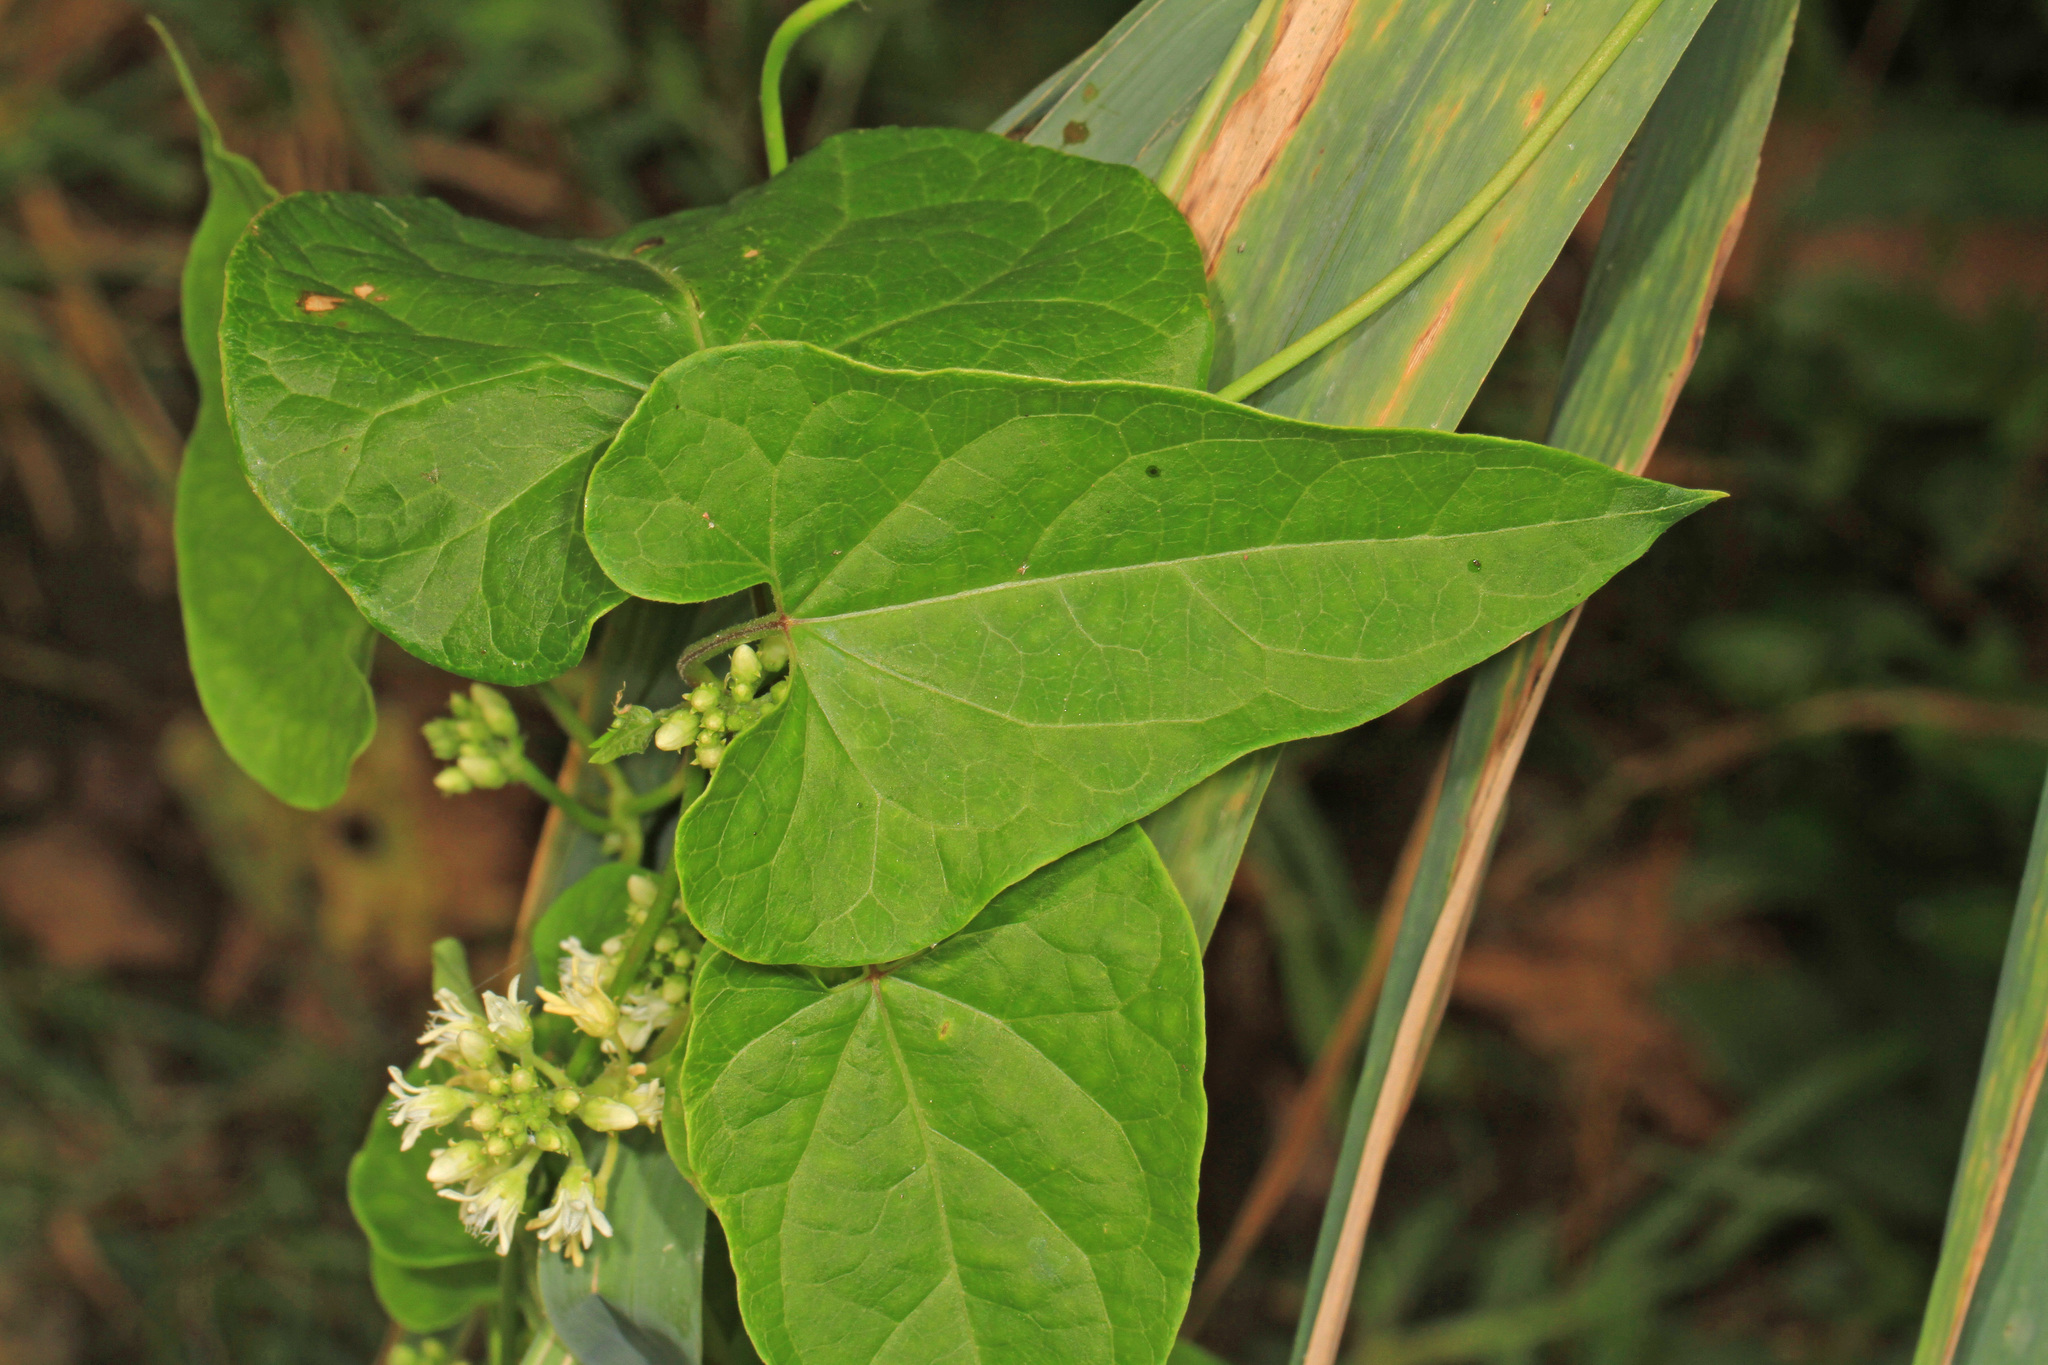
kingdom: Plantae
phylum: Tracheophyta
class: Magnoliopsida
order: Gentianales
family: Apocynaceae
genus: Cynanchum
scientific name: Cynanchum laeve
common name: Sandvine
